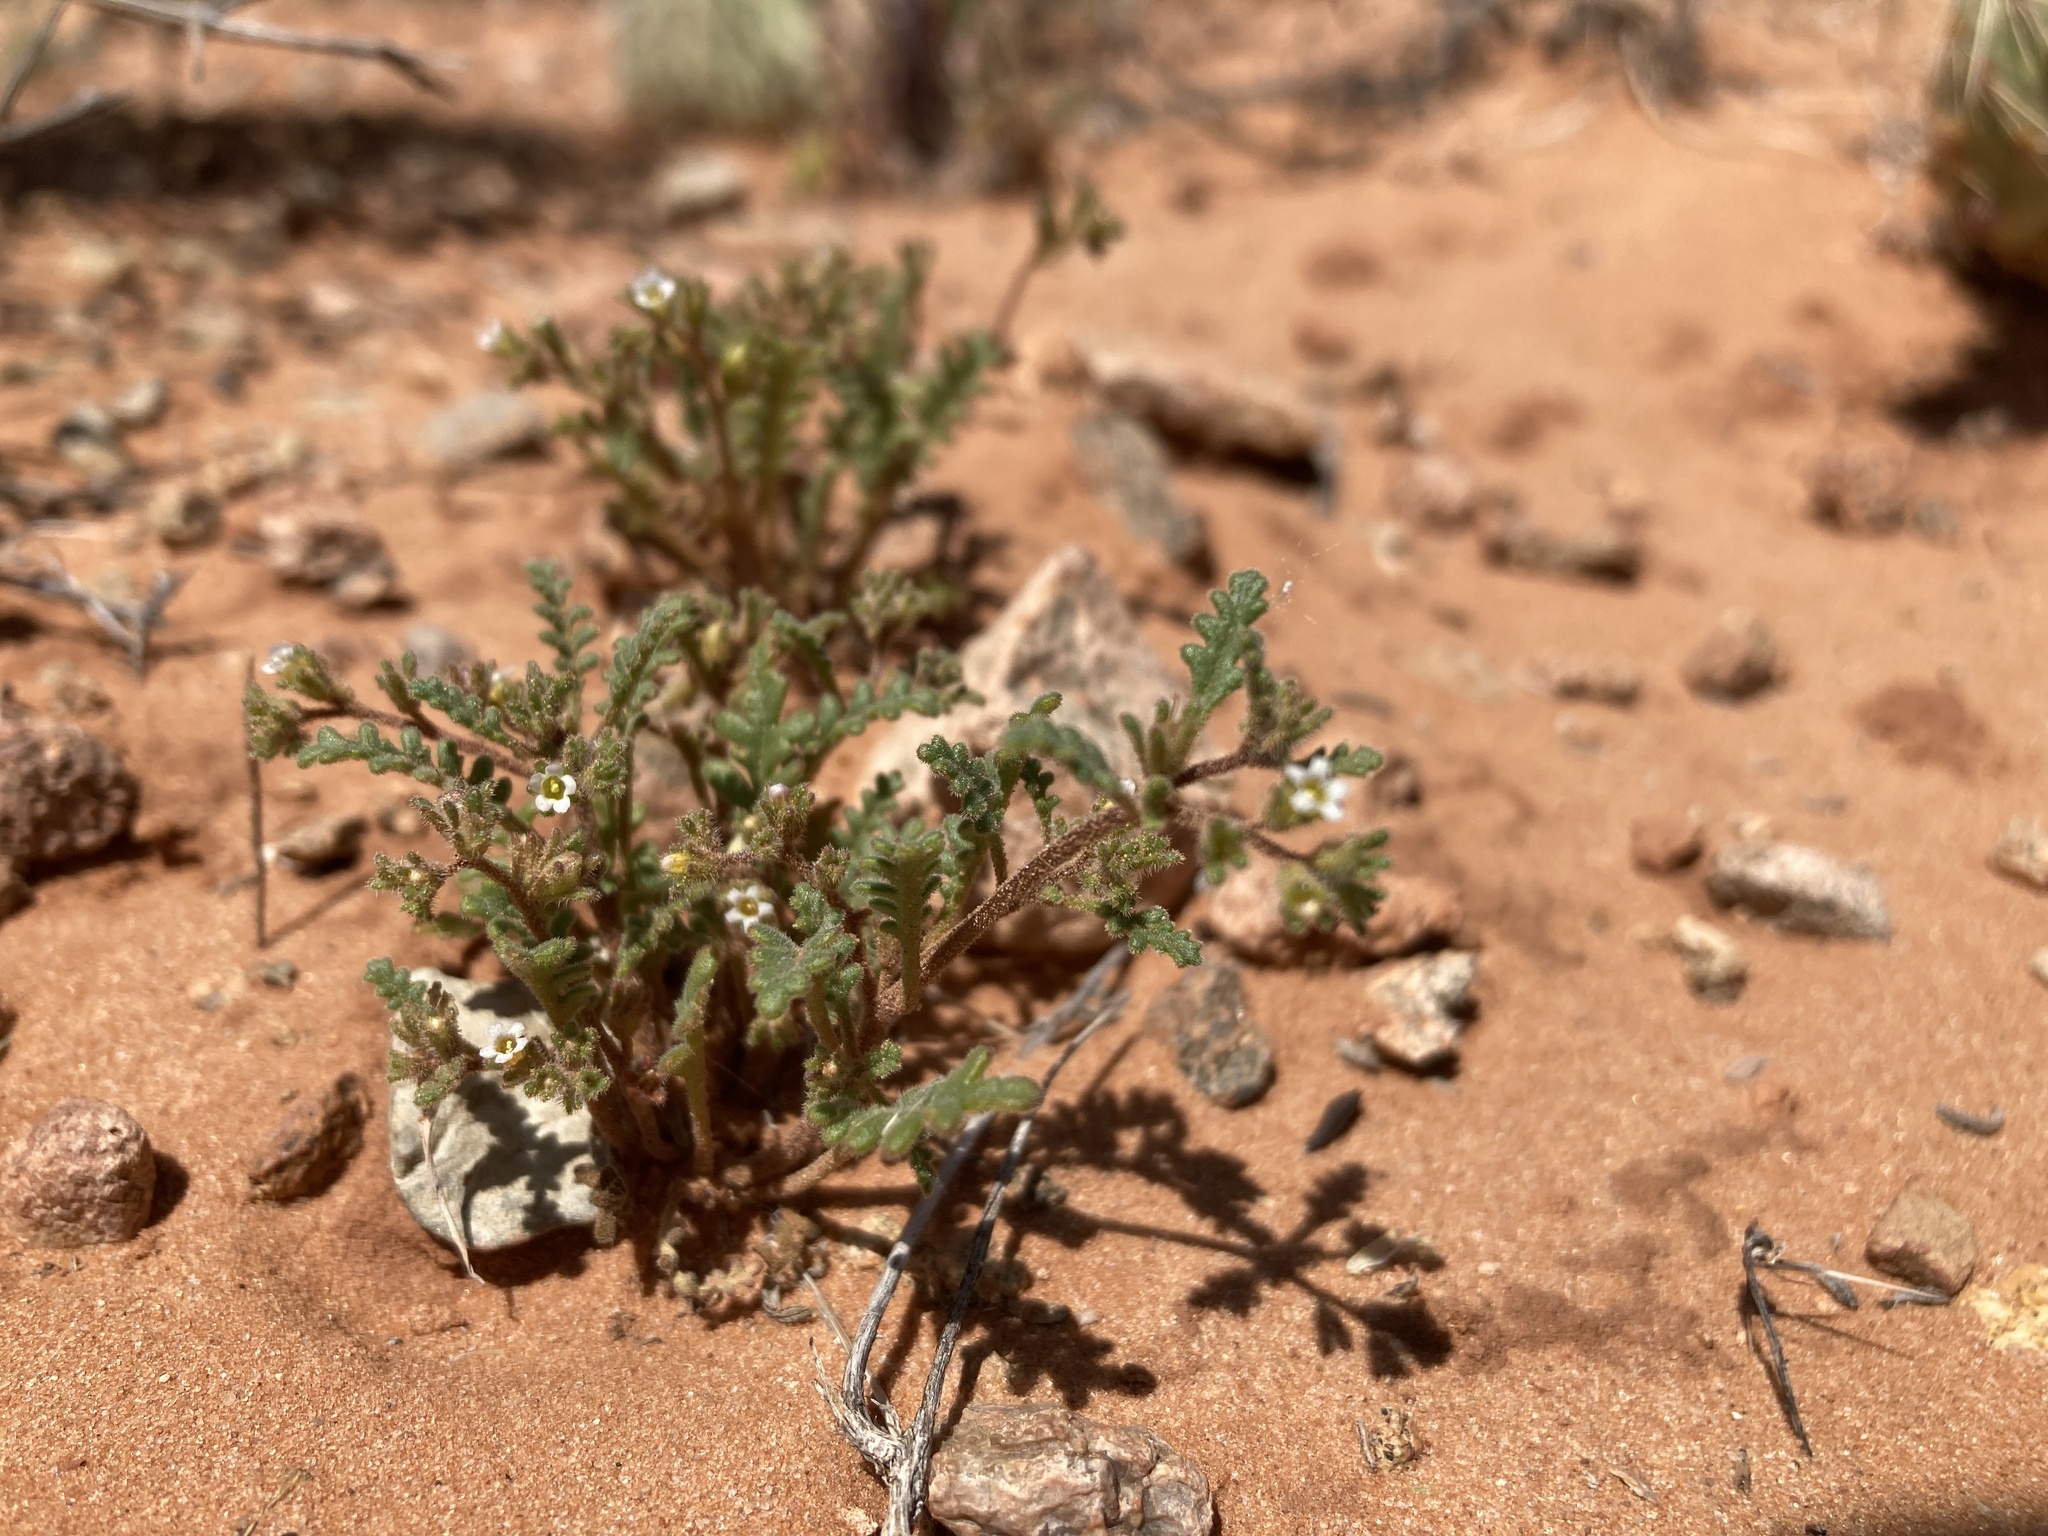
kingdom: Plantae
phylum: Tracheophyta
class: Magnoliopsida
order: Boraginales
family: Hydrophyllaceae
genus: Phacelia
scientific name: Phacelia ivesiana
